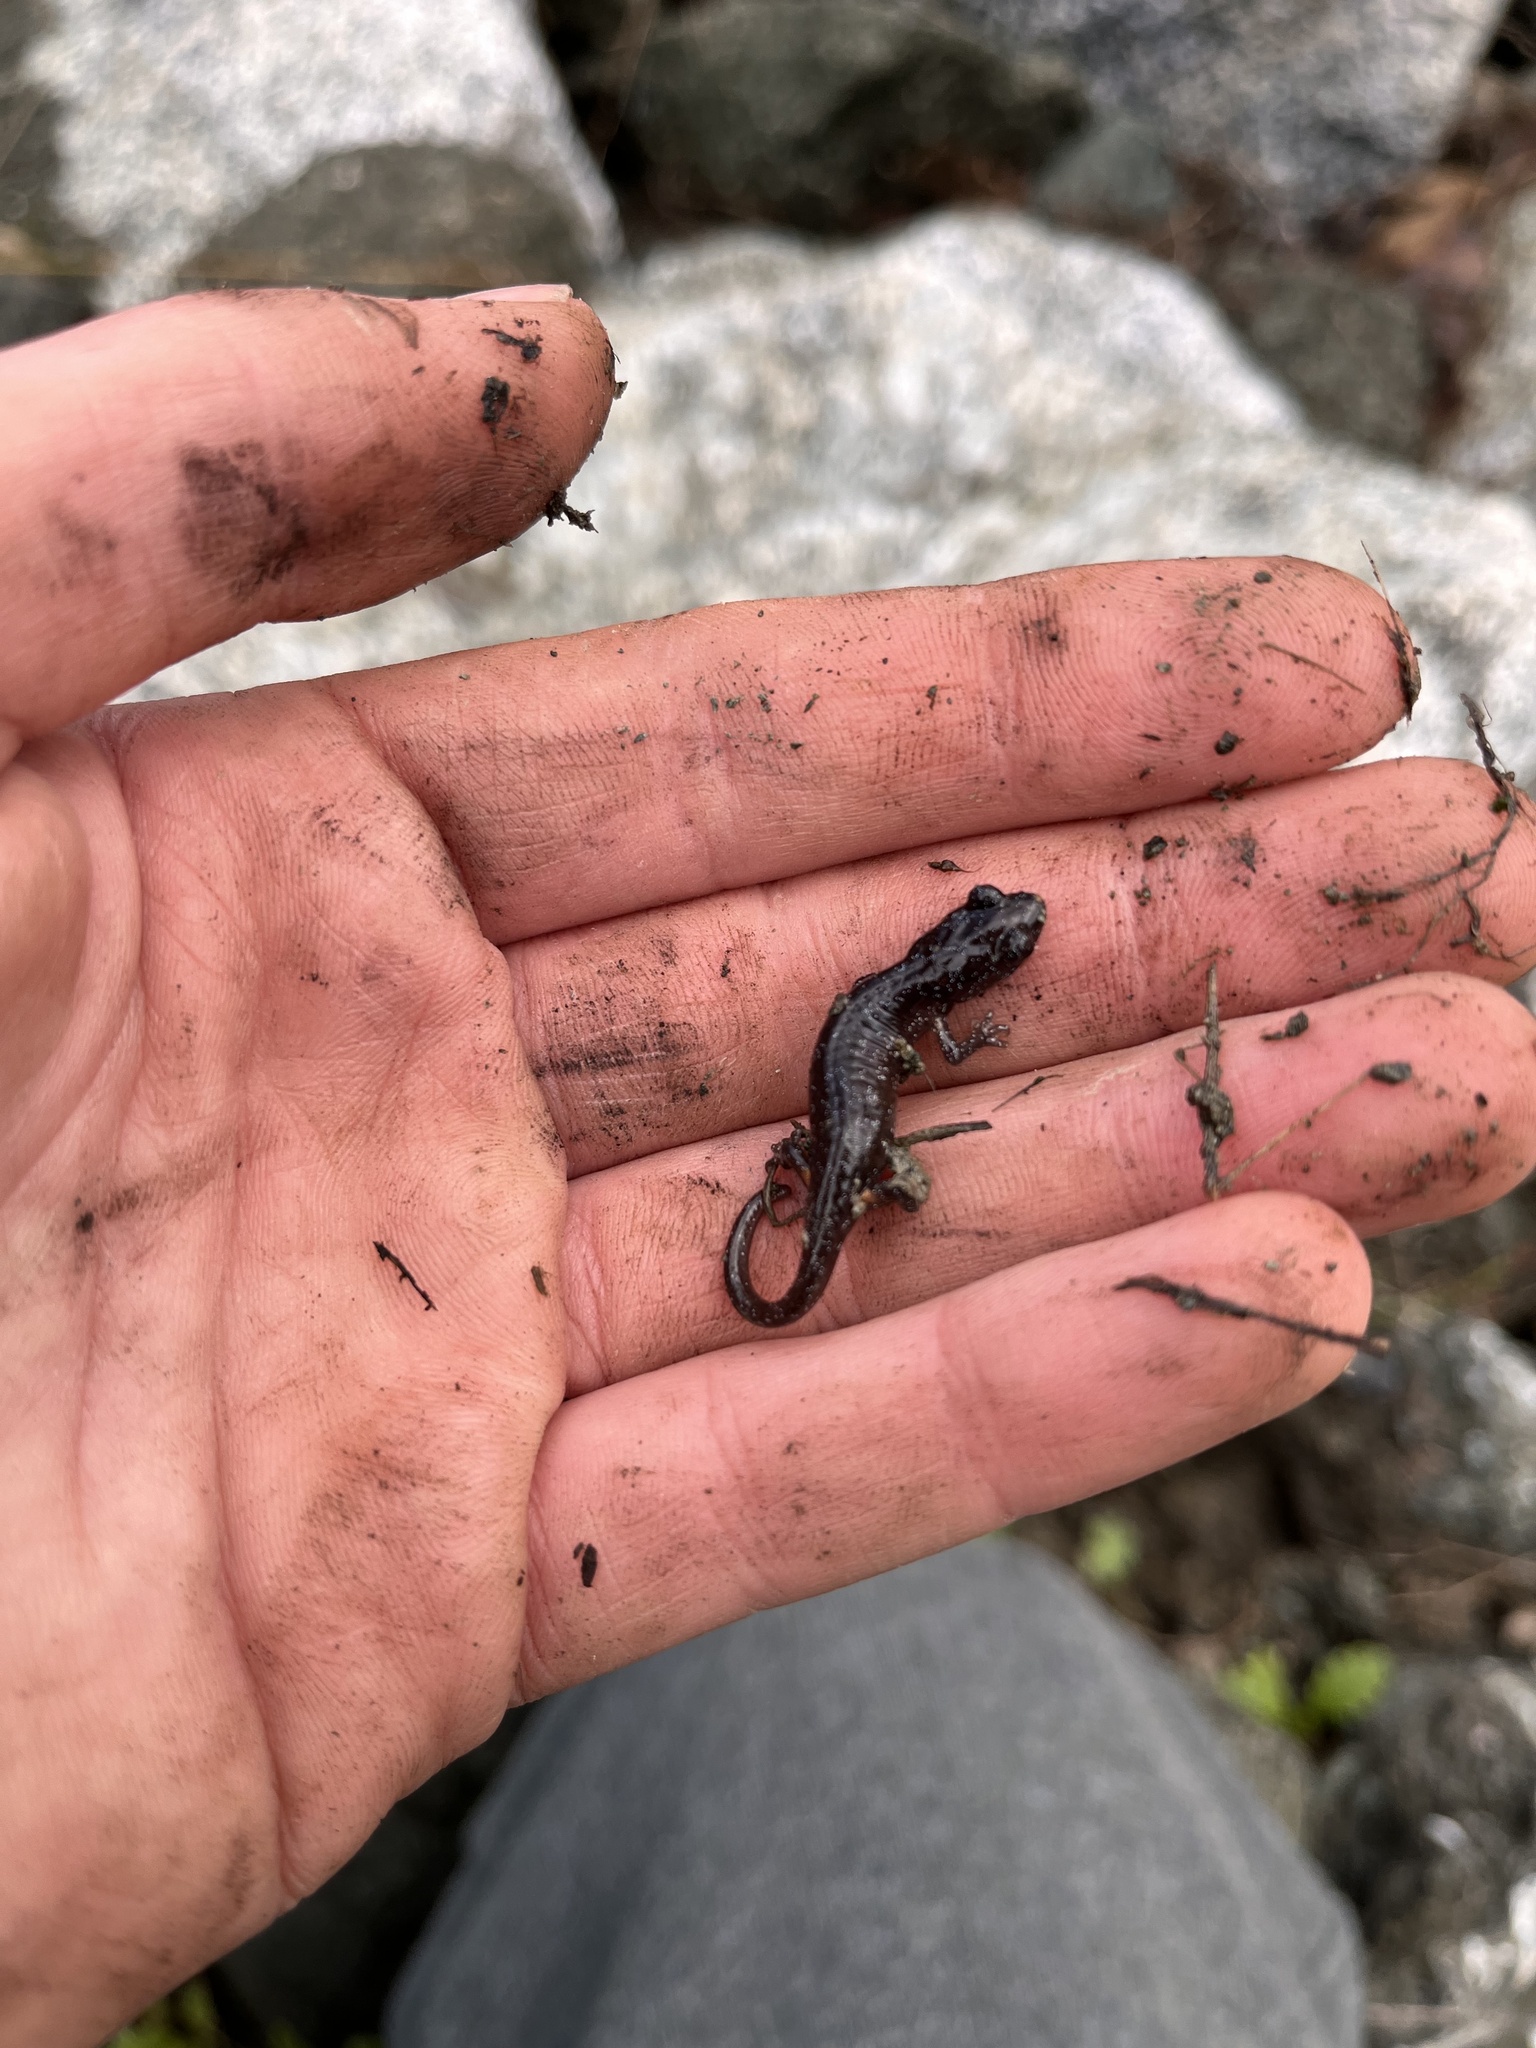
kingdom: Animalia
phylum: Chordata
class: Amphibia
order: Caudata
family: Plethodontidae
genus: Aneides
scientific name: Aneides lugubris
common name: Arboreal salamander
